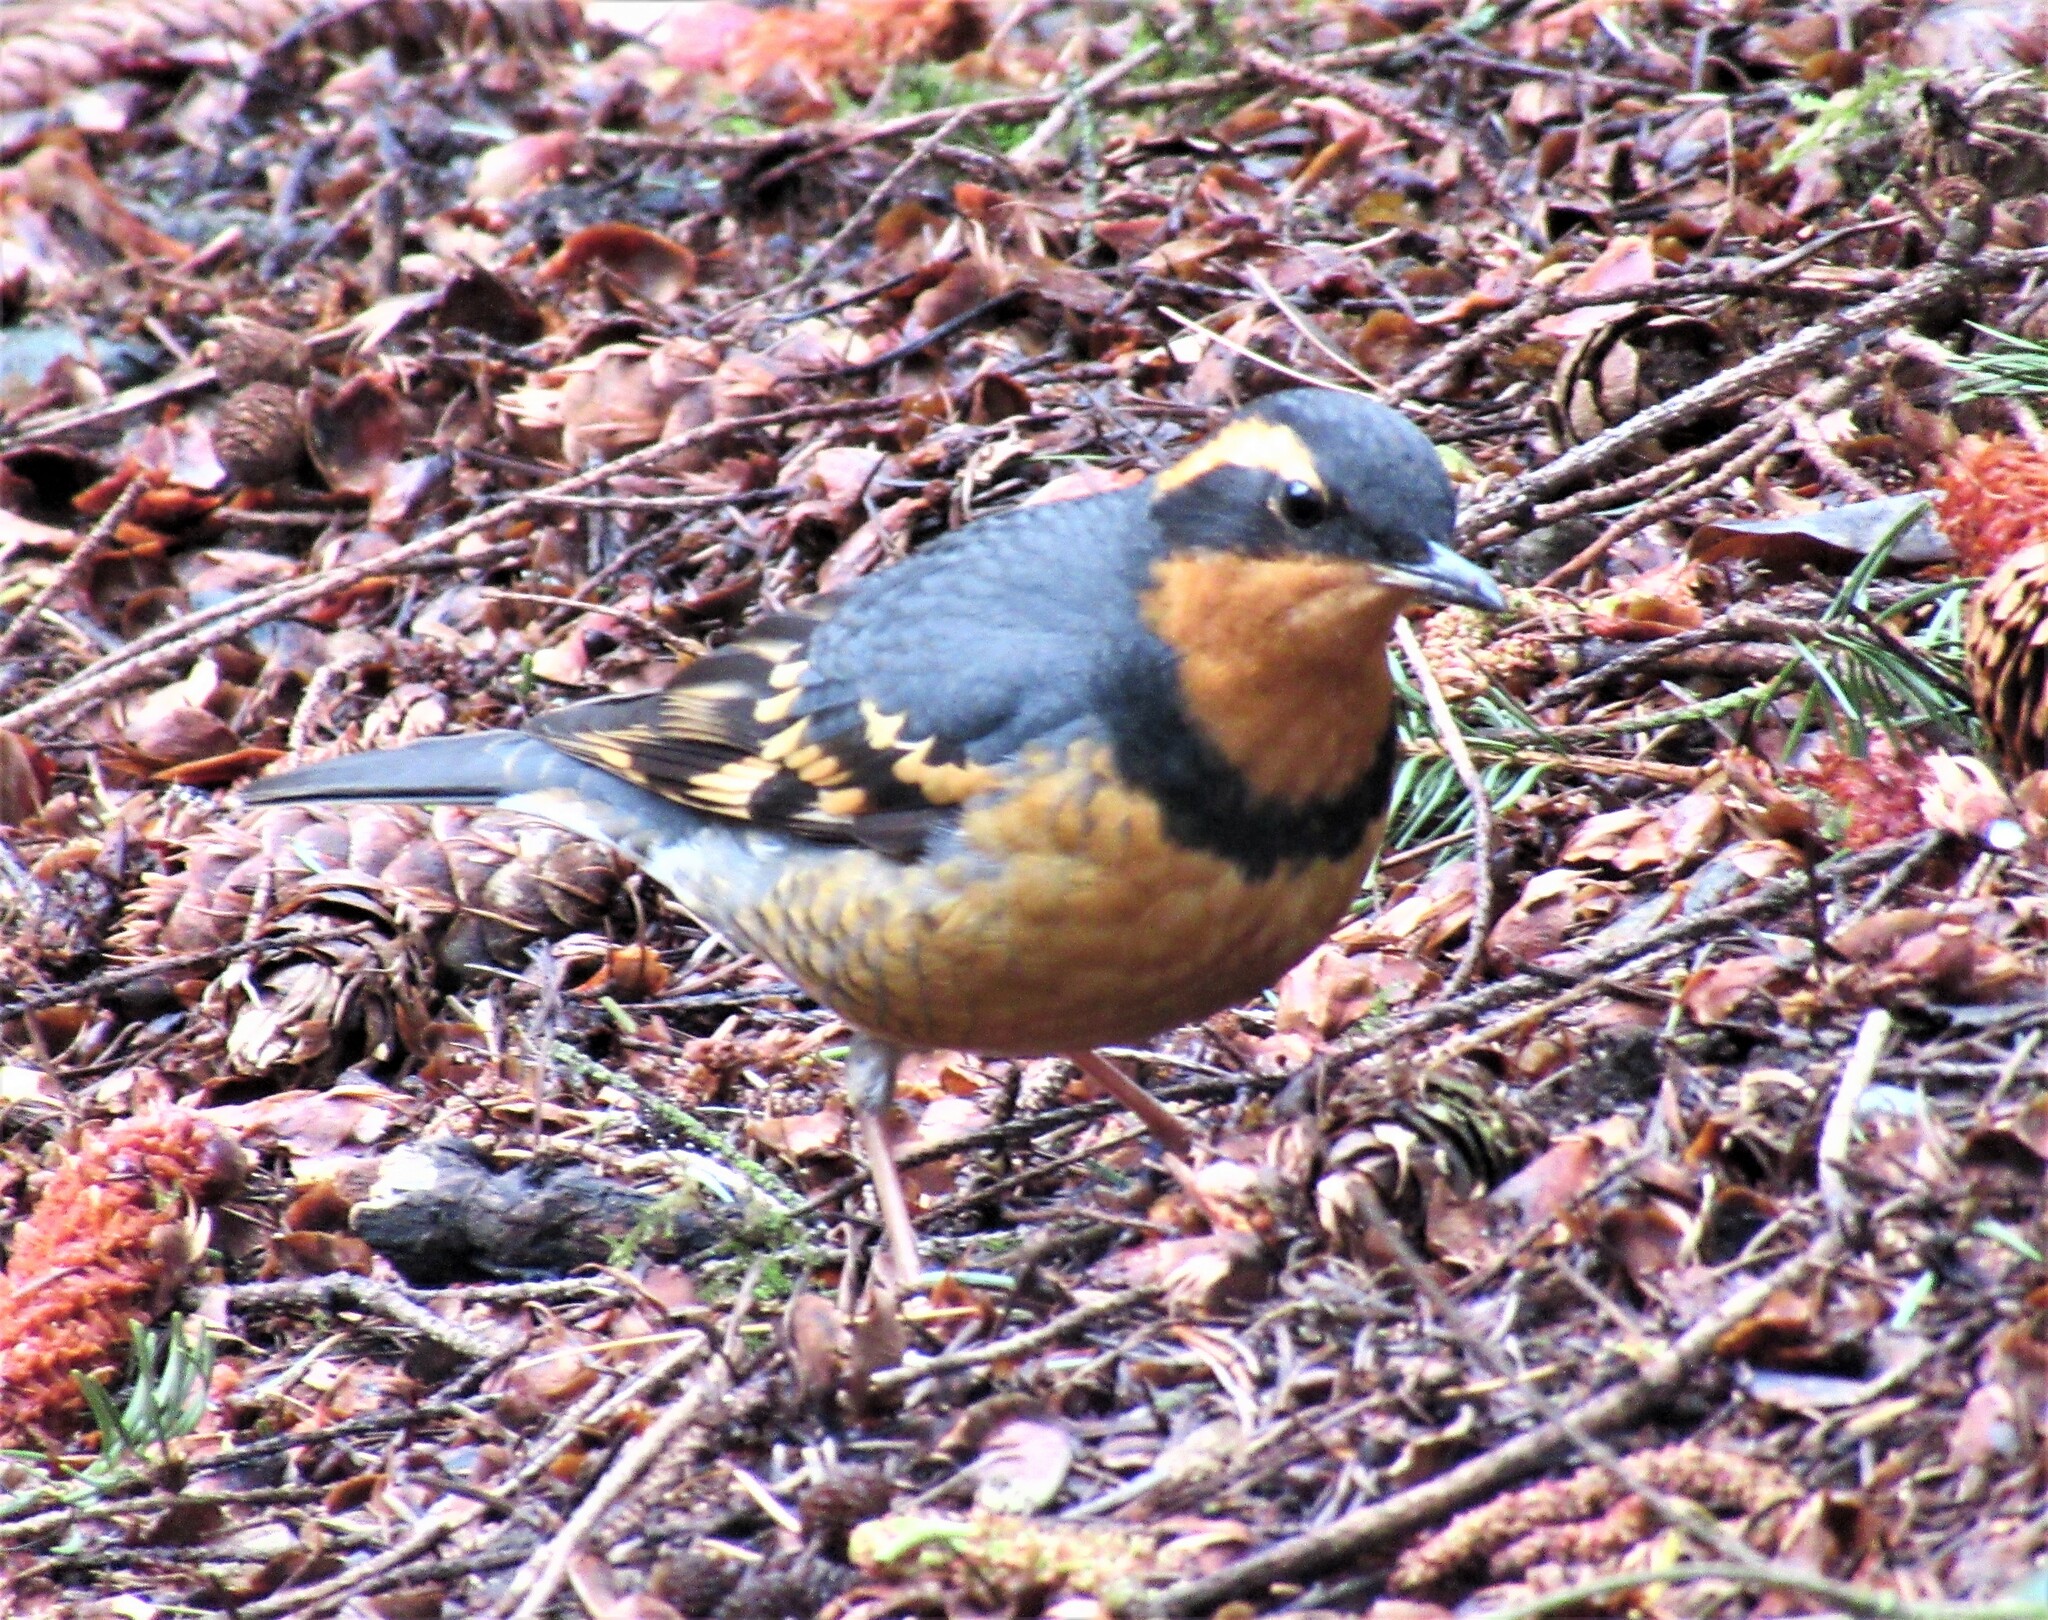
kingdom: Animalia
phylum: Chordata
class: Aves
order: Passeriformes
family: Turdidae
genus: Ixoreus
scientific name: Ixoreus naevius
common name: Varied thrush
